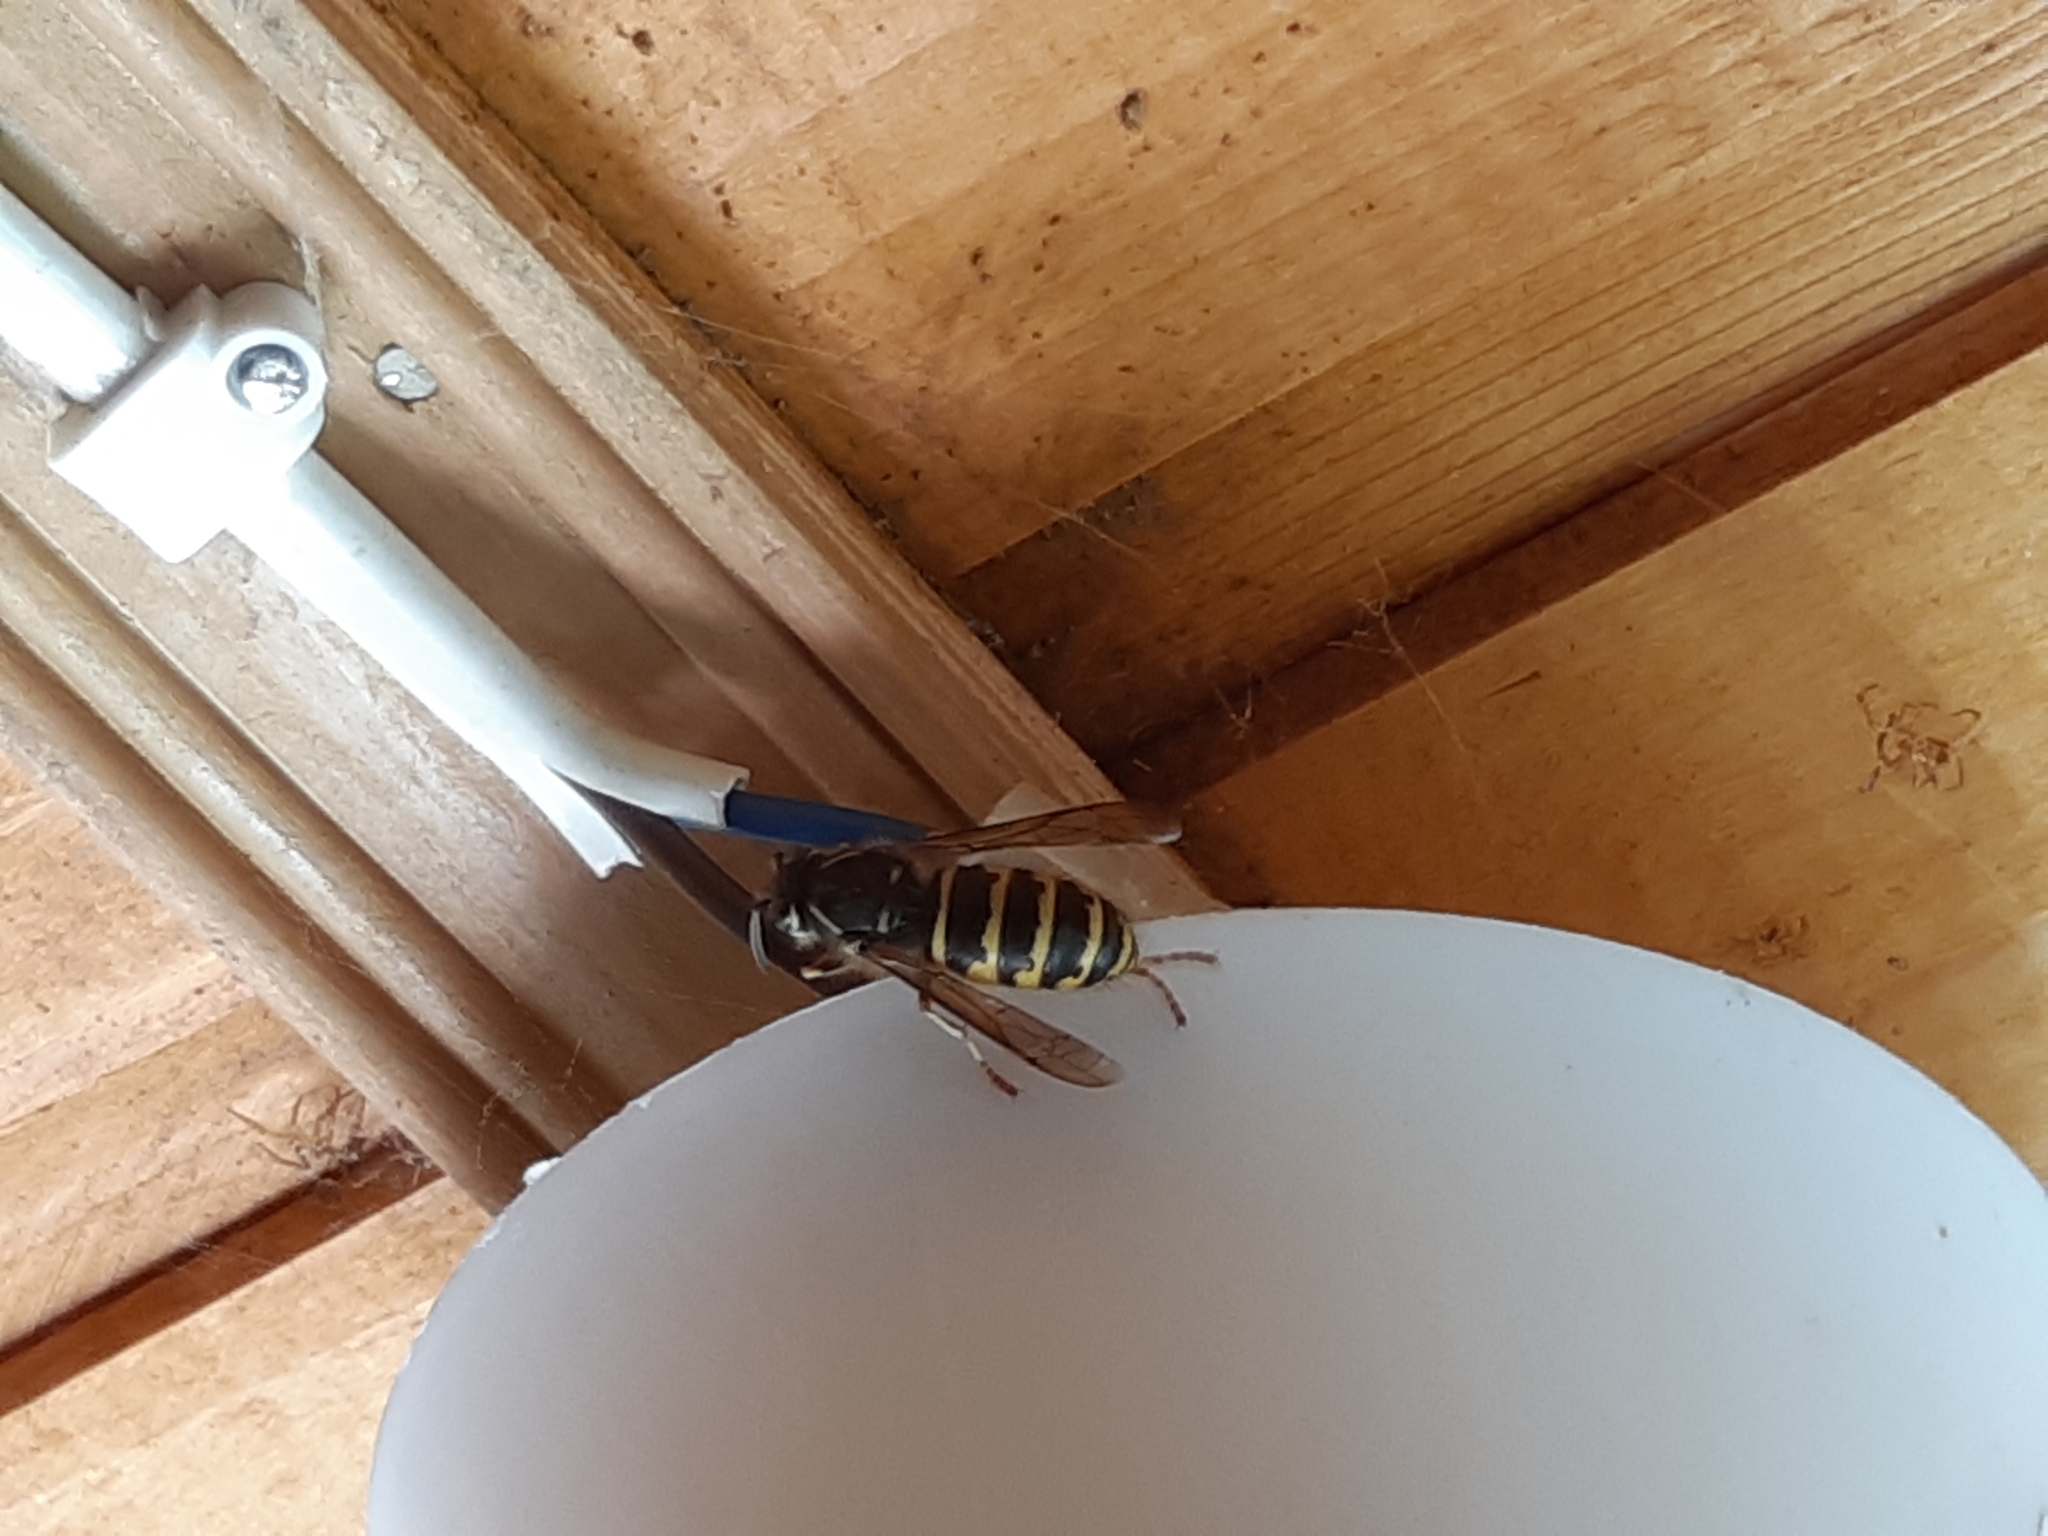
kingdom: Animalia
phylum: Arthropoda
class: Insecta
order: Hymenoptera
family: Vespidae
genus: Dolichovespula
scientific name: Dolichovespula sylvestris
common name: Tree wasp
